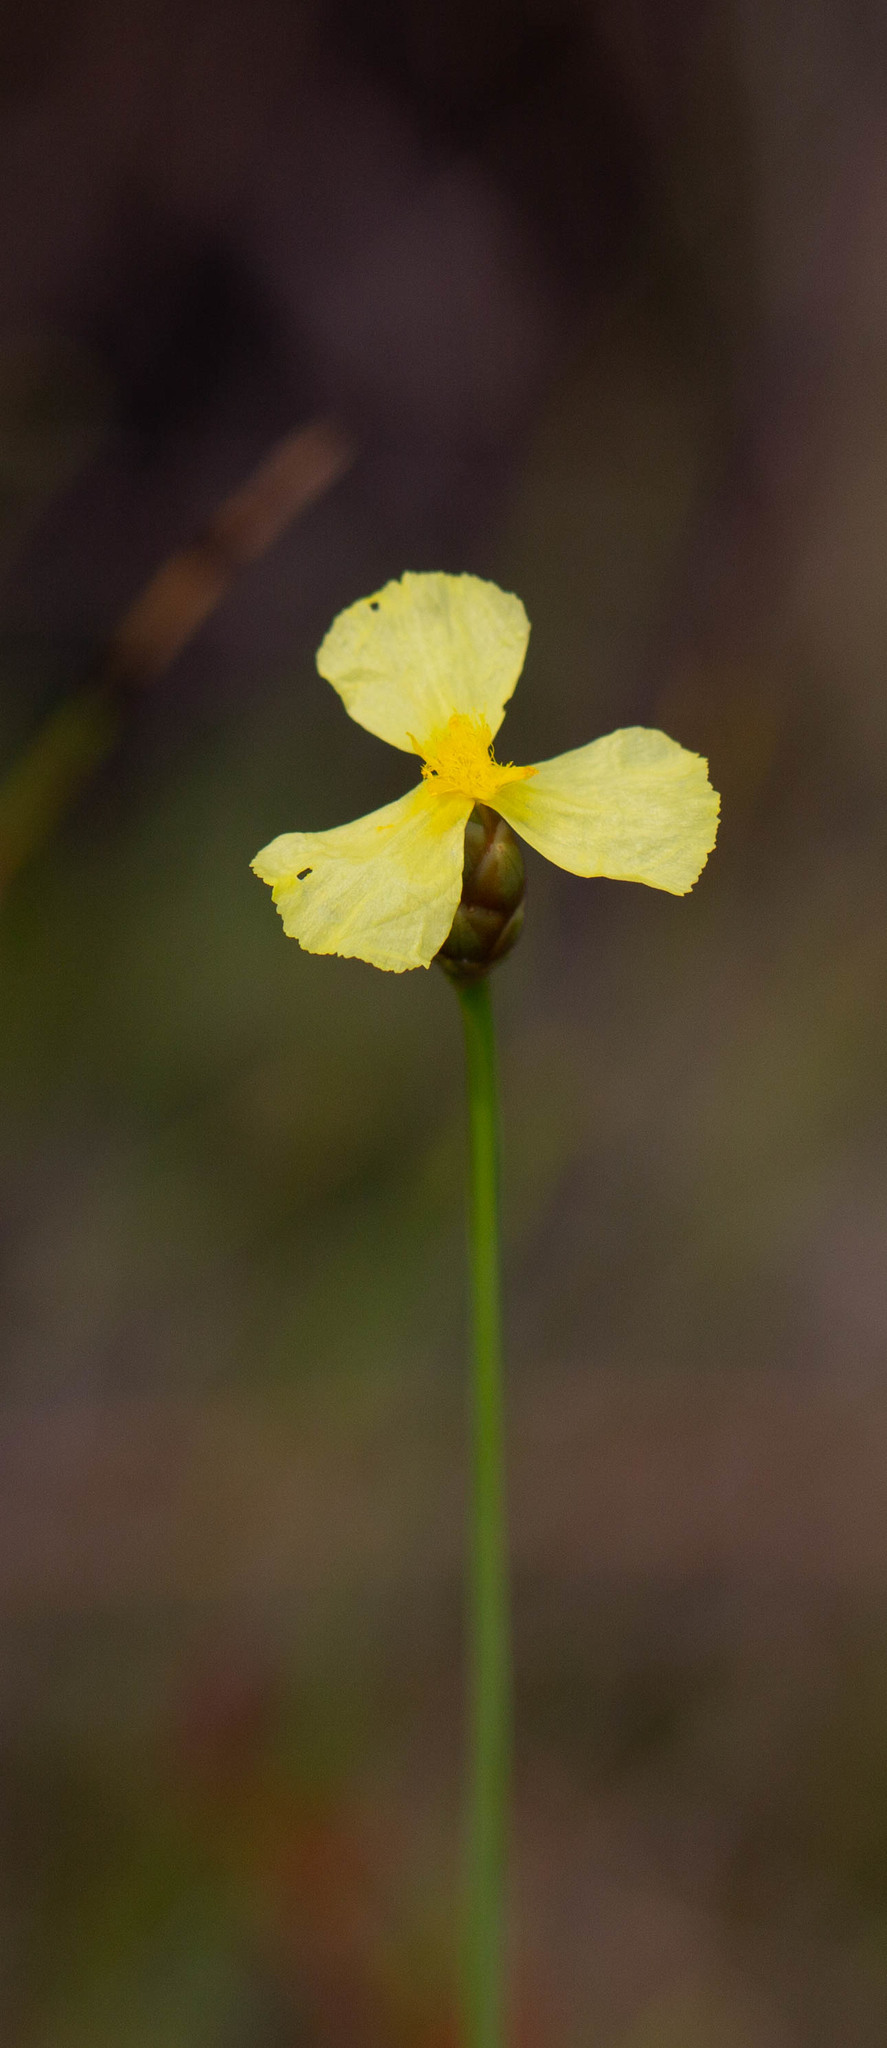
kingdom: Plantae
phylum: Tracheophyta
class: Liliopsida
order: Poales
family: Xyridaceae
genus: Xyris
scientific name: Xyris ambigua
